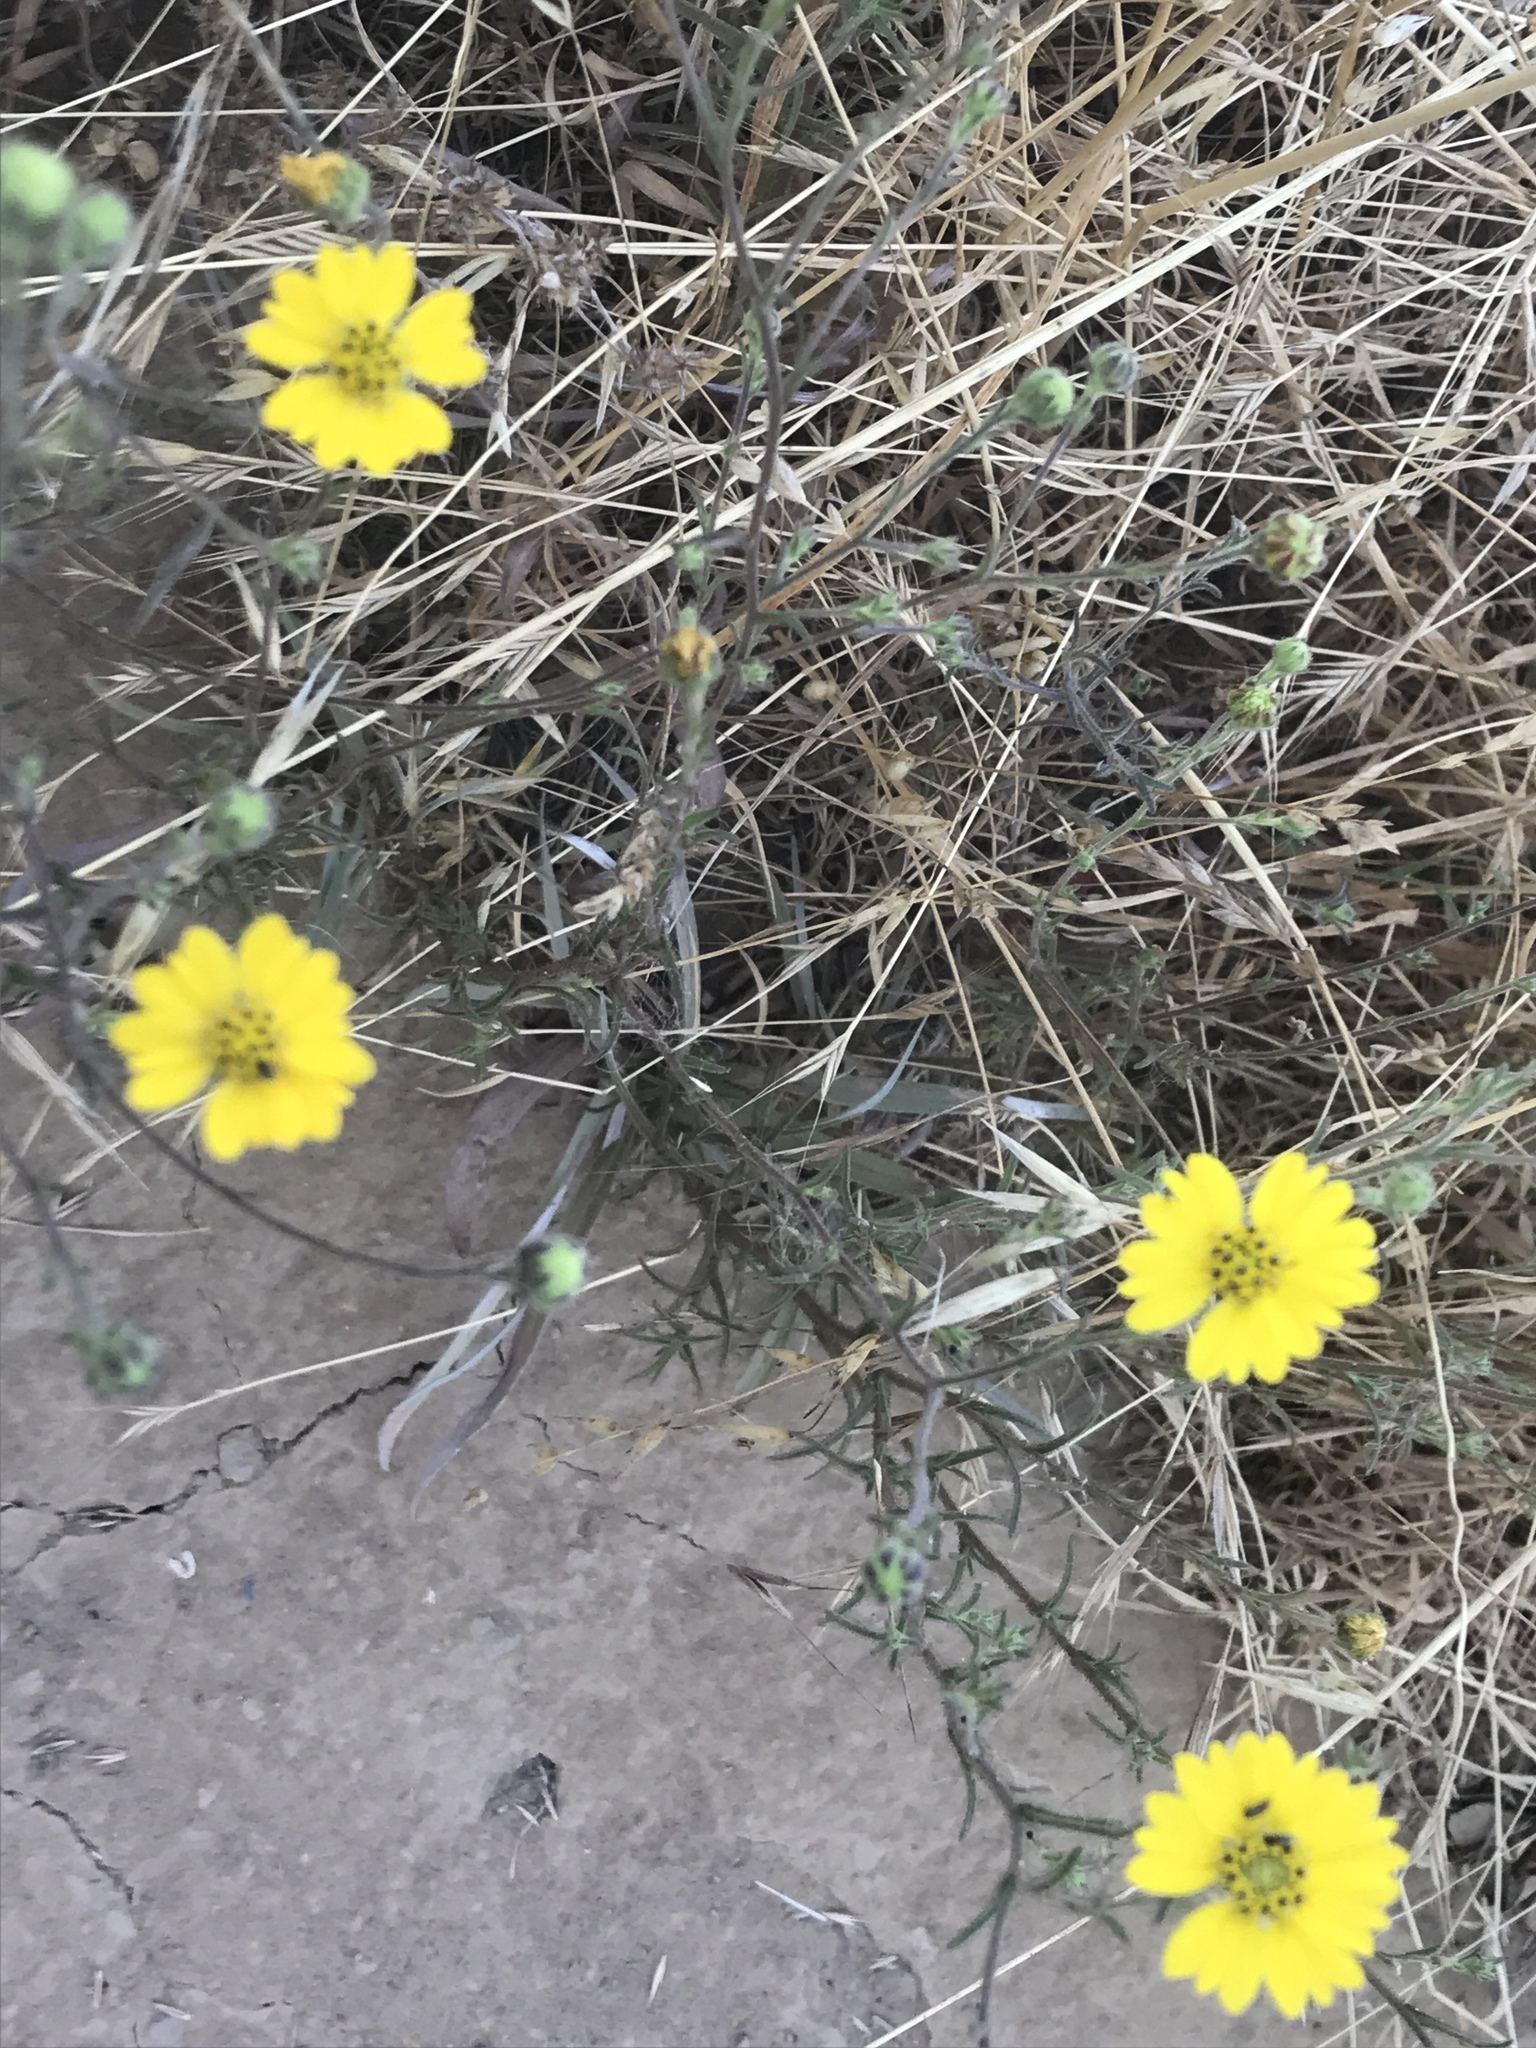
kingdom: Plantae
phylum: Tracheophyta
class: Magnoliopsida
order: Asterales
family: Asteraceae
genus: Hemizonia
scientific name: Hemizonia congesta
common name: Hayfield tarweed
